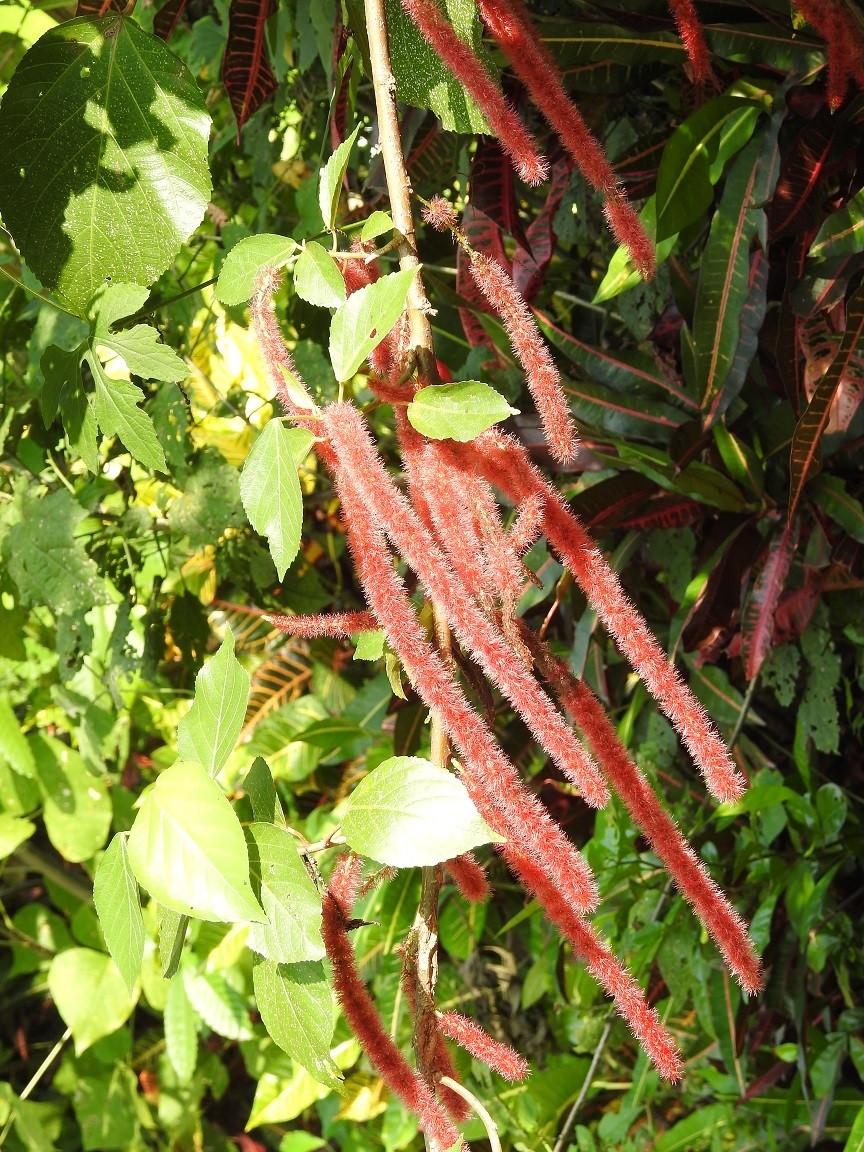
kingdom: Plantae
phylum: Tracheophyta
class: Magnoliopsida
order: Malpighiales
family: Euphorbiaceae
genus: Acalypha
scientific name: Acalypha hispida
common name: Chenilleplant
